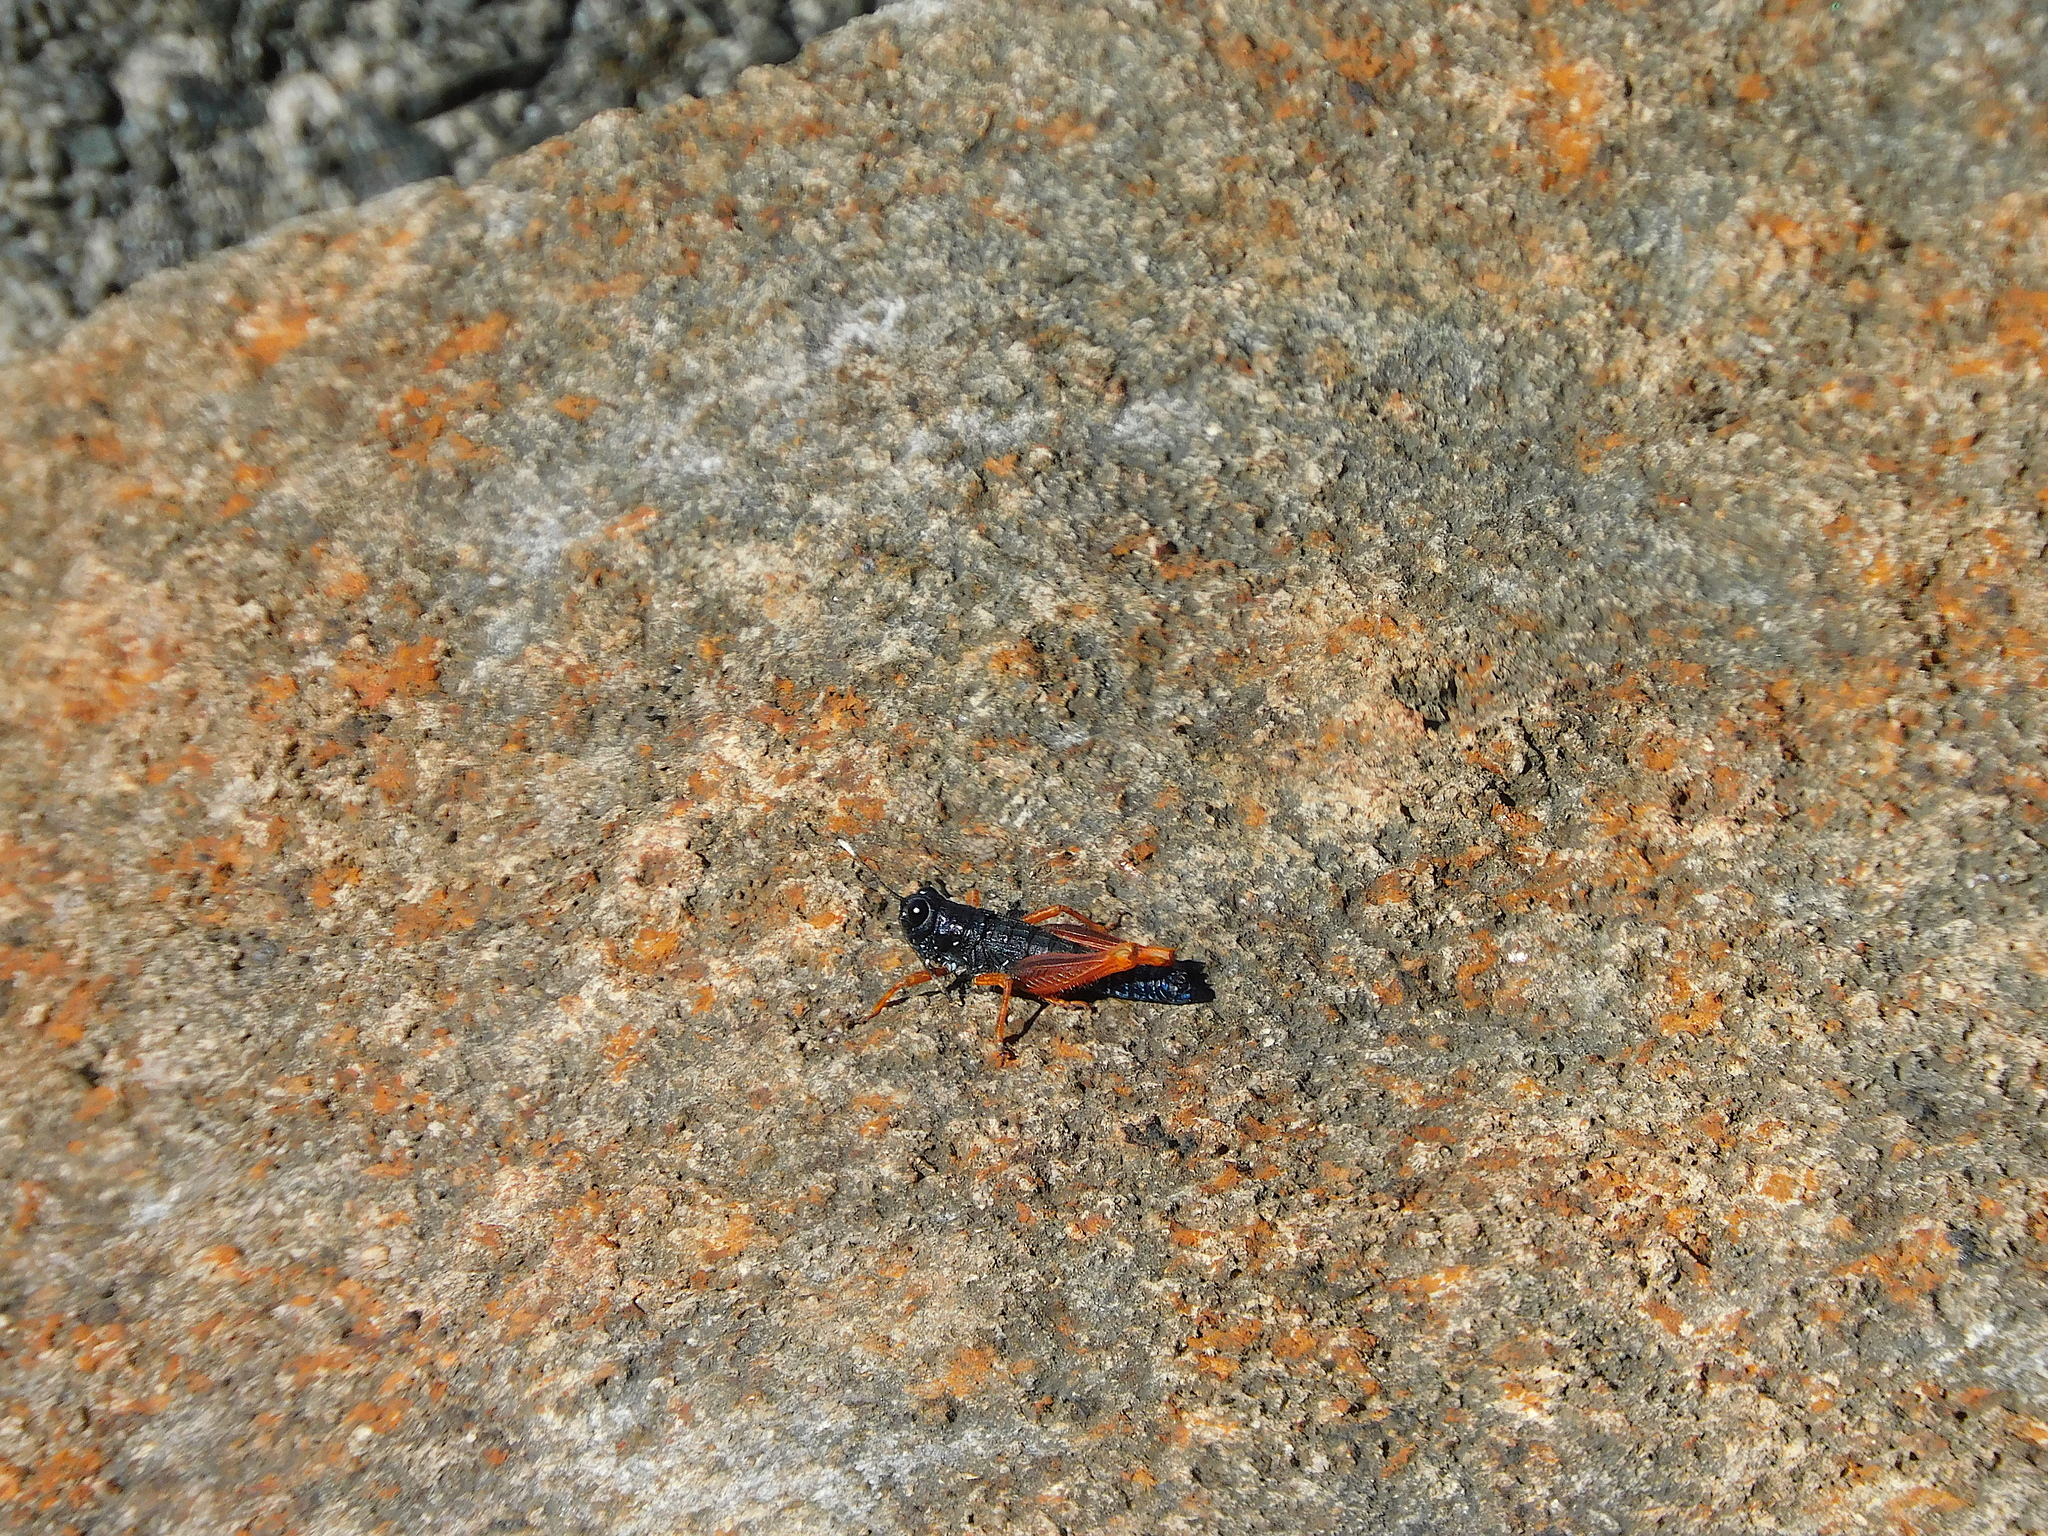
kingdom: Animalia
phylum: Arthropoda
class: Insecta
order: Orthoptera
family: Acrididae
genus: Tasmanalpina
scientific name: Tasmanalpina clavata
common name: Tasmanian velvet grasshopper
